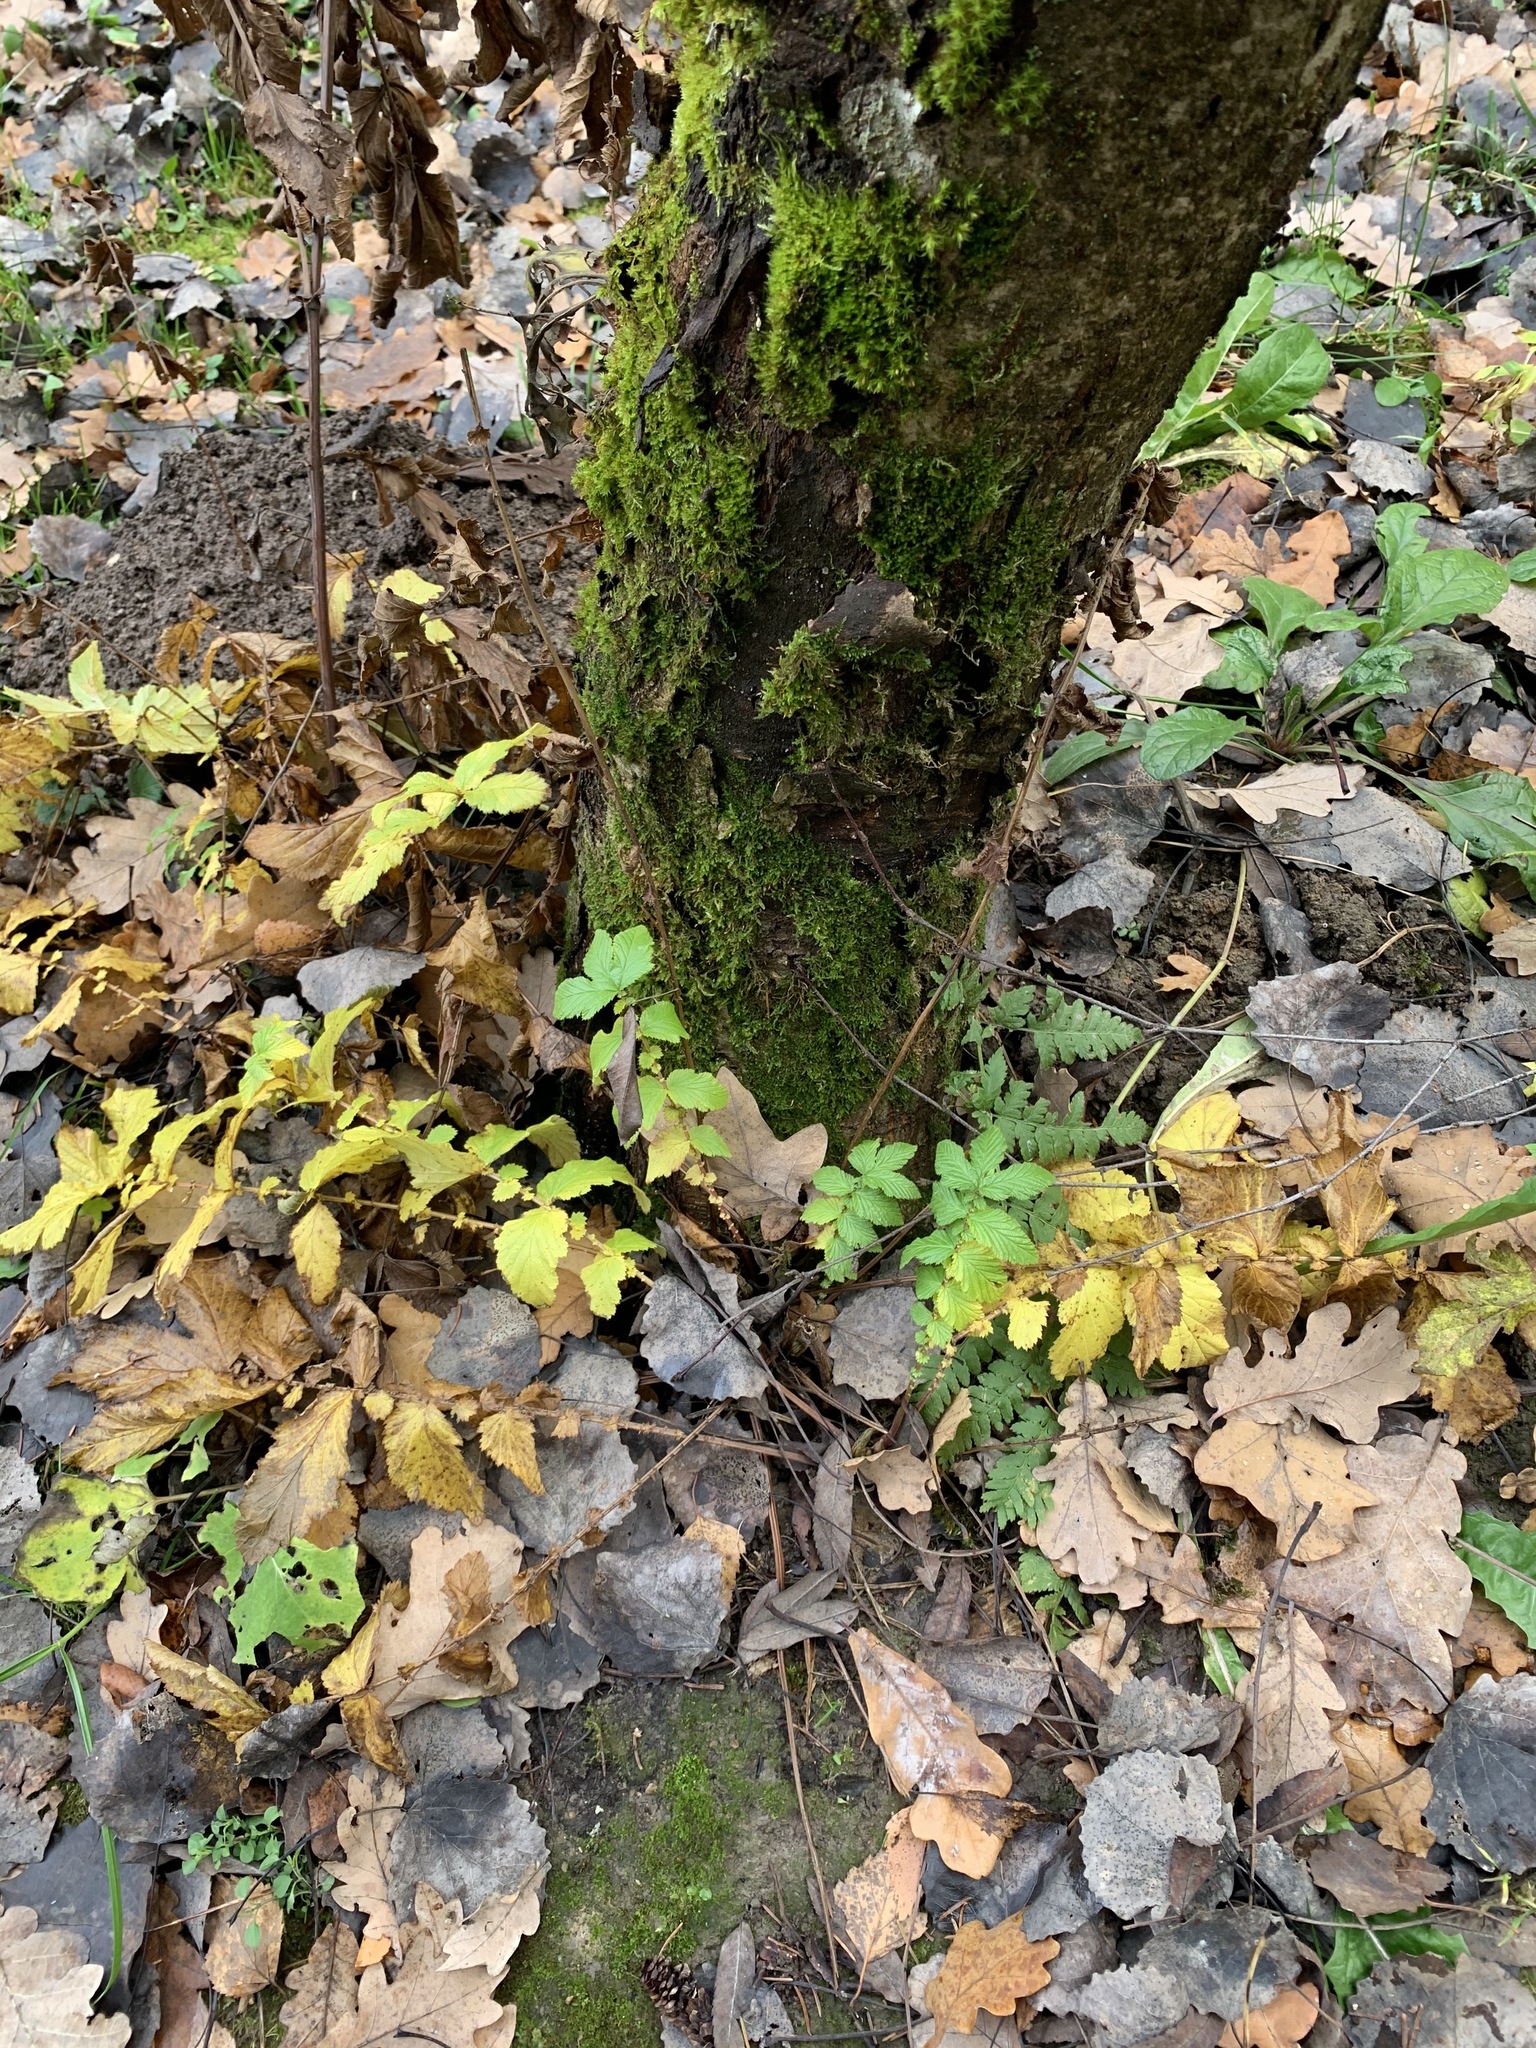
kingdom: Plantae
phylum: Tracheophyta
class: Magnoliopsida
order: Rosales
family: Rosaceae
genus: Filipendula
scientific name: Filipendula ulmaria
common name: Meadowsweet
